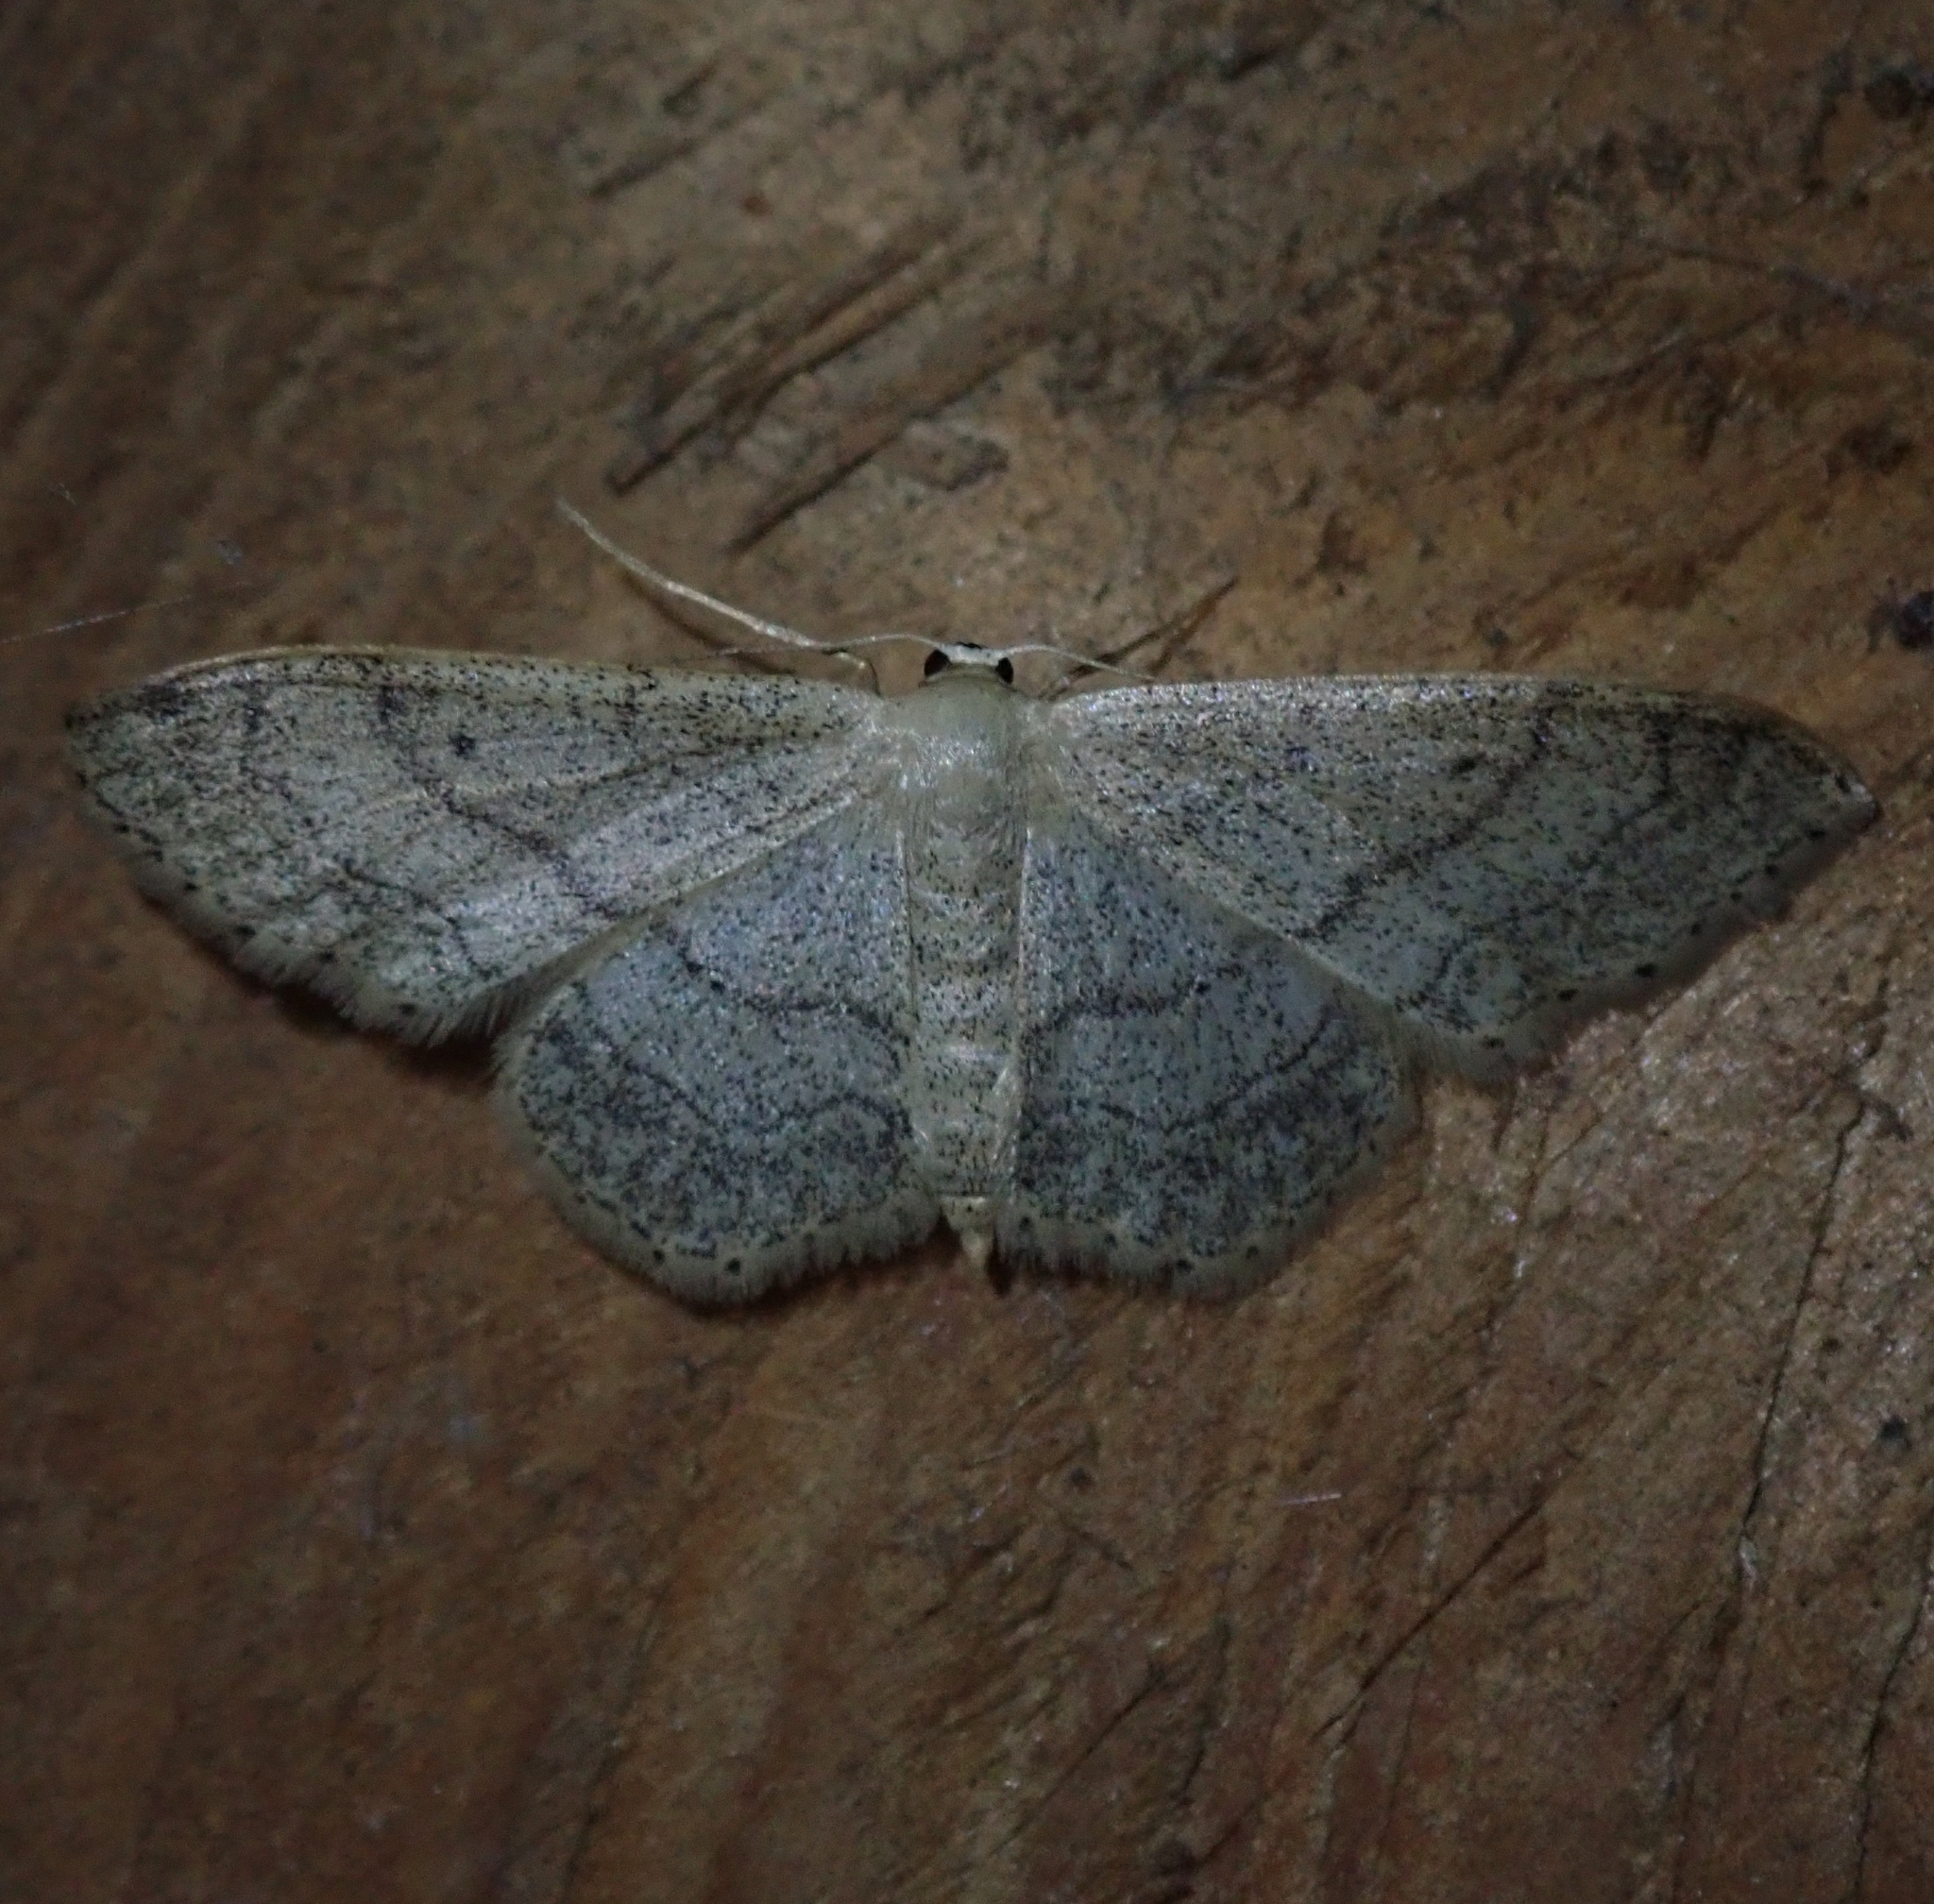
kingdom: Animalia
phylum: Arthropoda
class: Insecta
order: Lepidoptera
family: Geometridae
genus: Idaea
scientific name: Idaea aversata
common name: Riband wave
